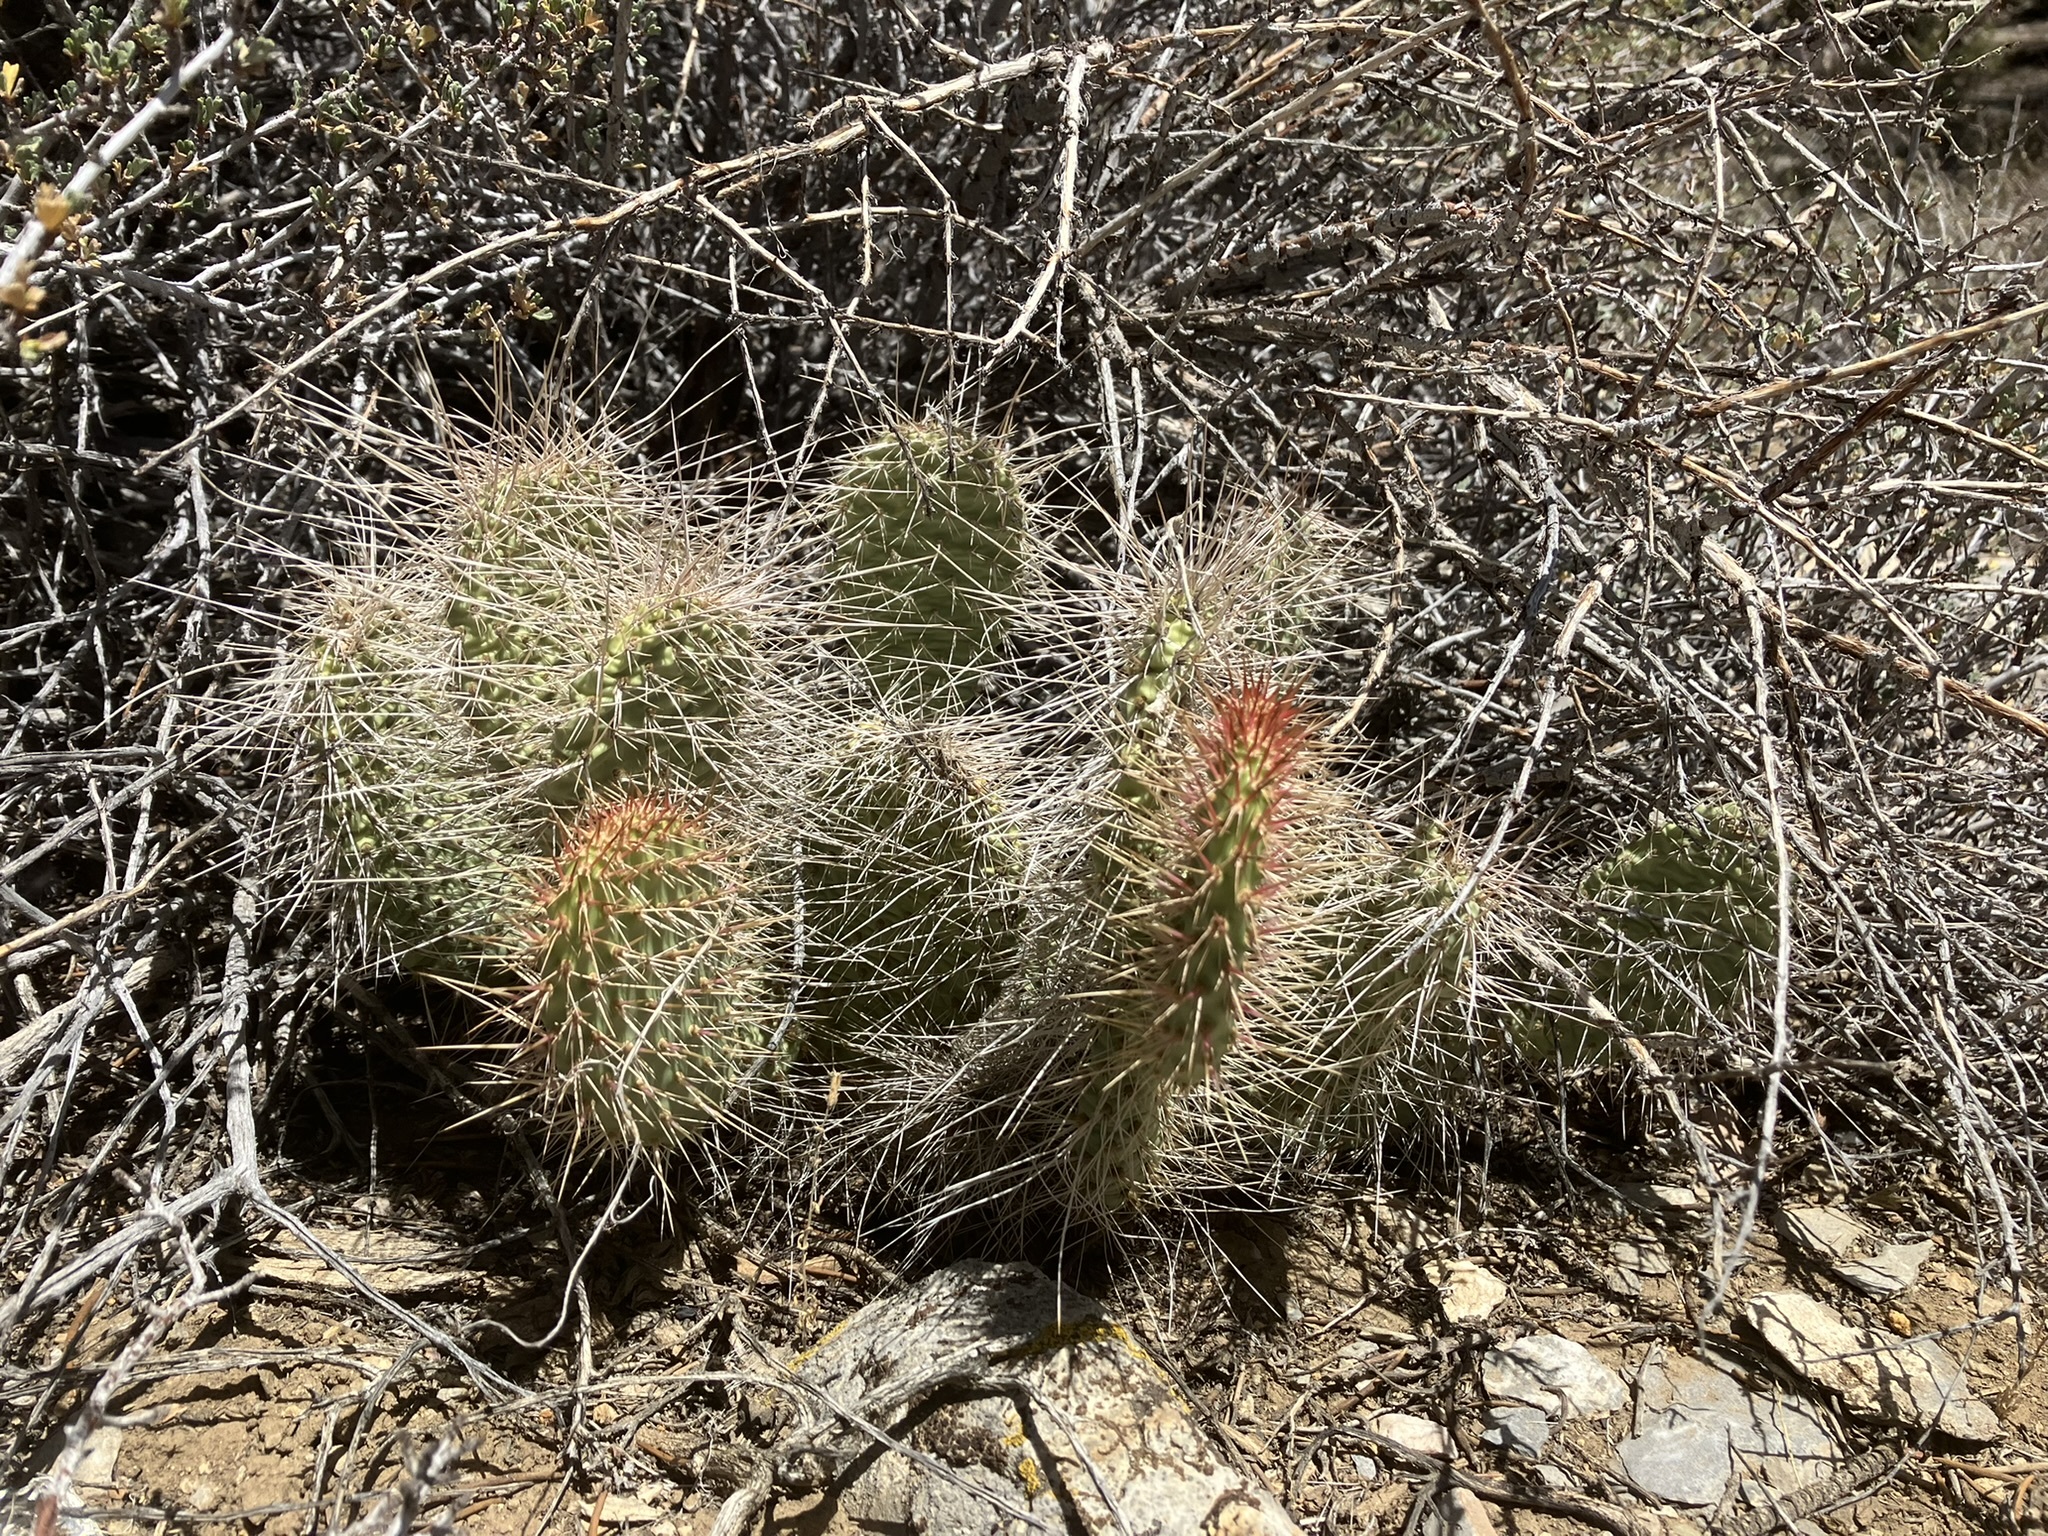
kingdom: Plantae
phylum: Tracheophyta
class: Magnoliopsida
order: Caryophyllales
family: Cactaceae
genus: Opuntia
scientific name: Opuntia polyacantha
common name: Plains prickly-pear
